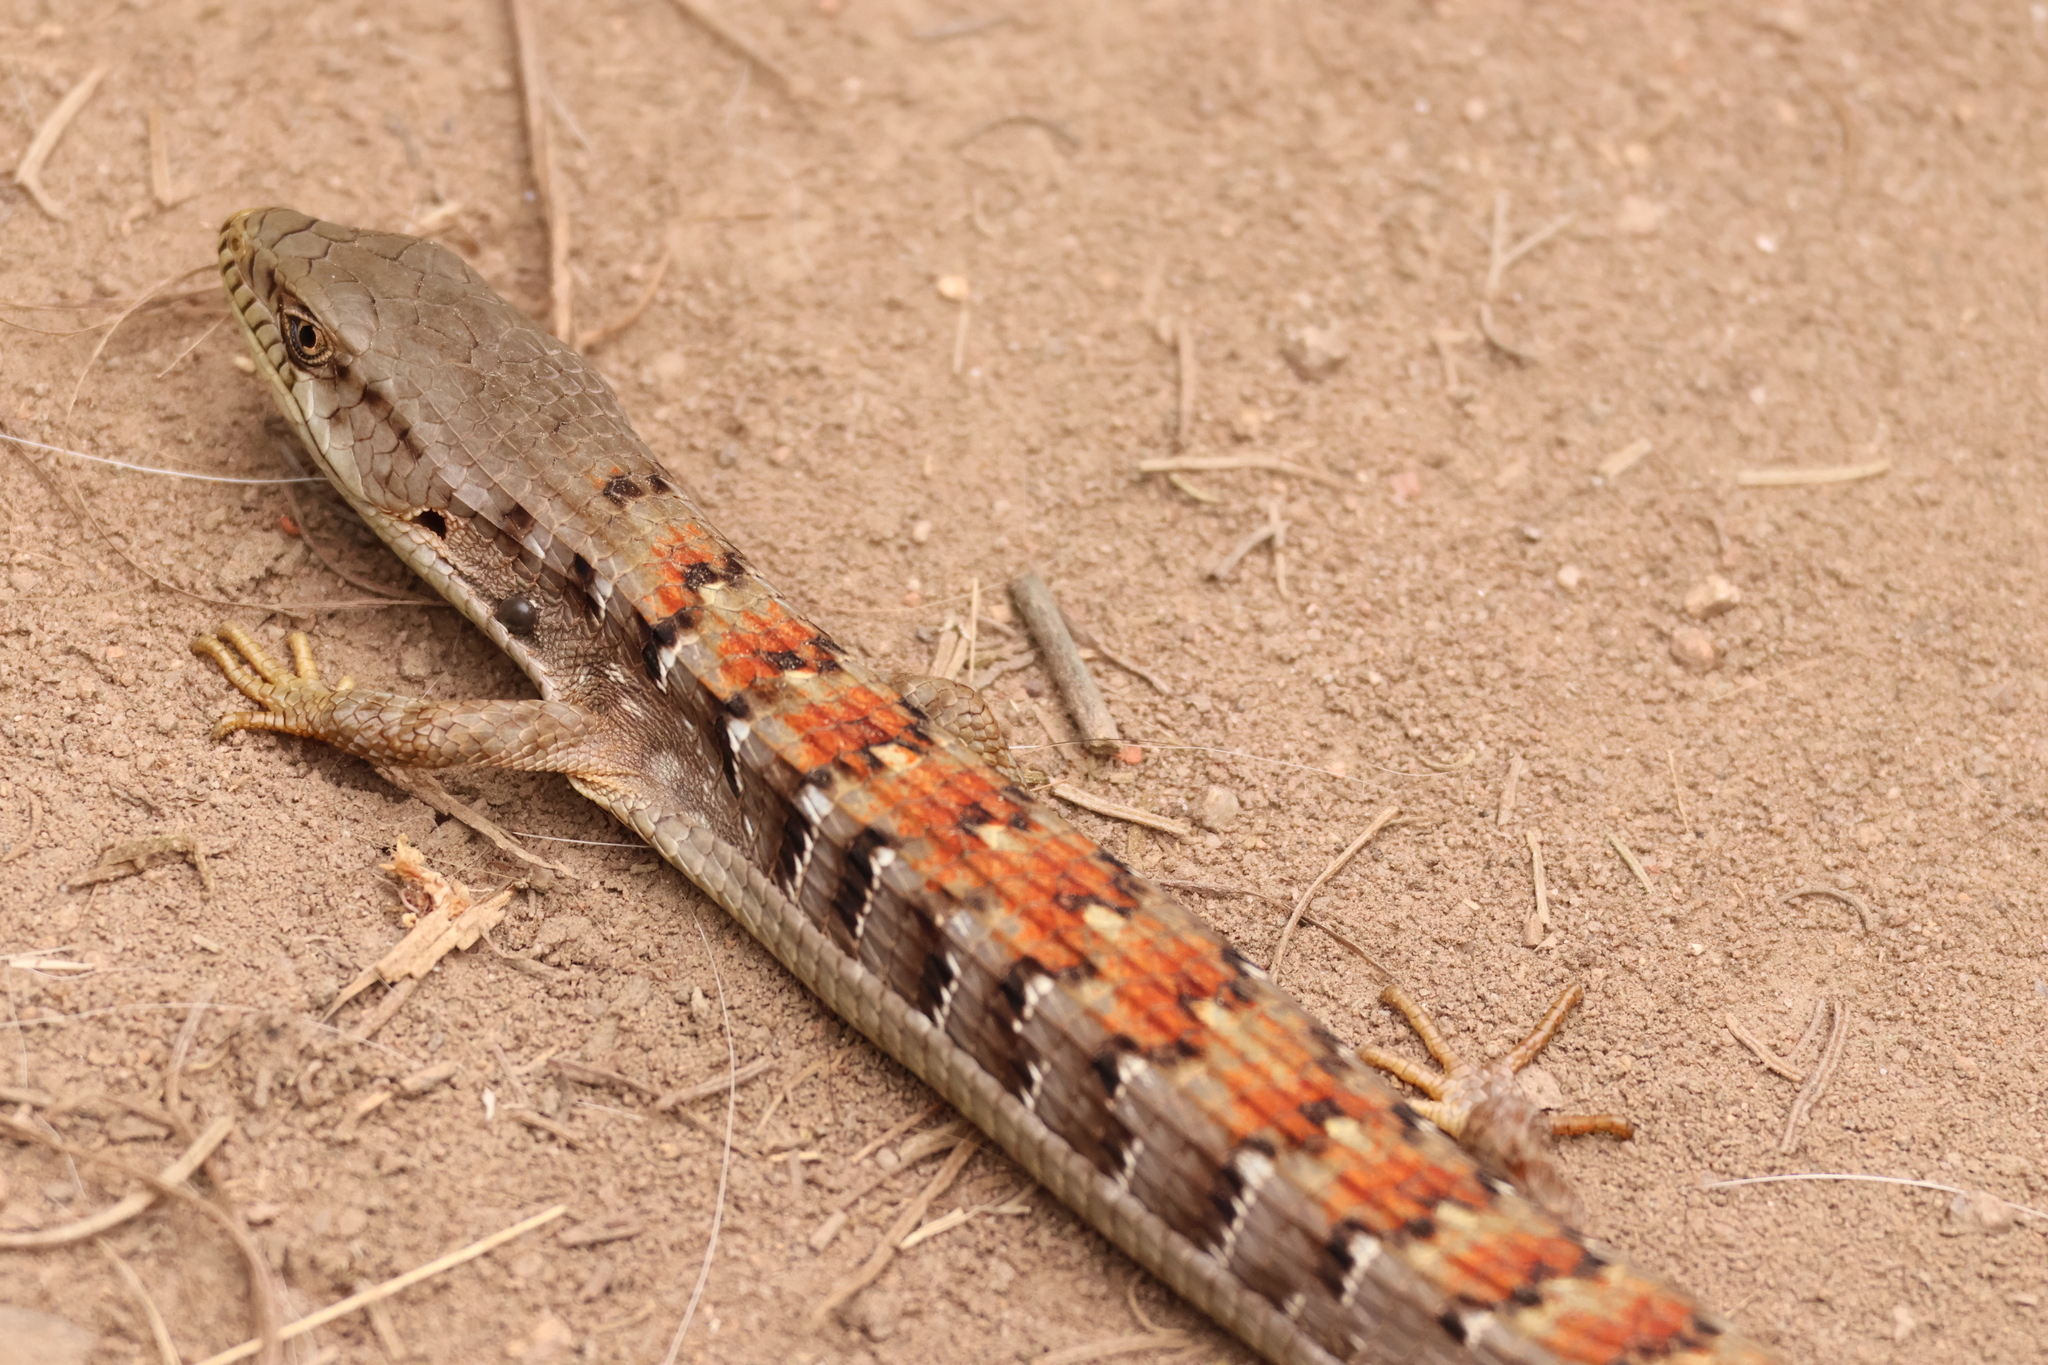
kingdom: Animalia
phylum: Chordata
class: Squamata
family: Anguidae
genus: Elgaria
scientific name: Elgaria multicarinata
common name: Southern alligator lizard
